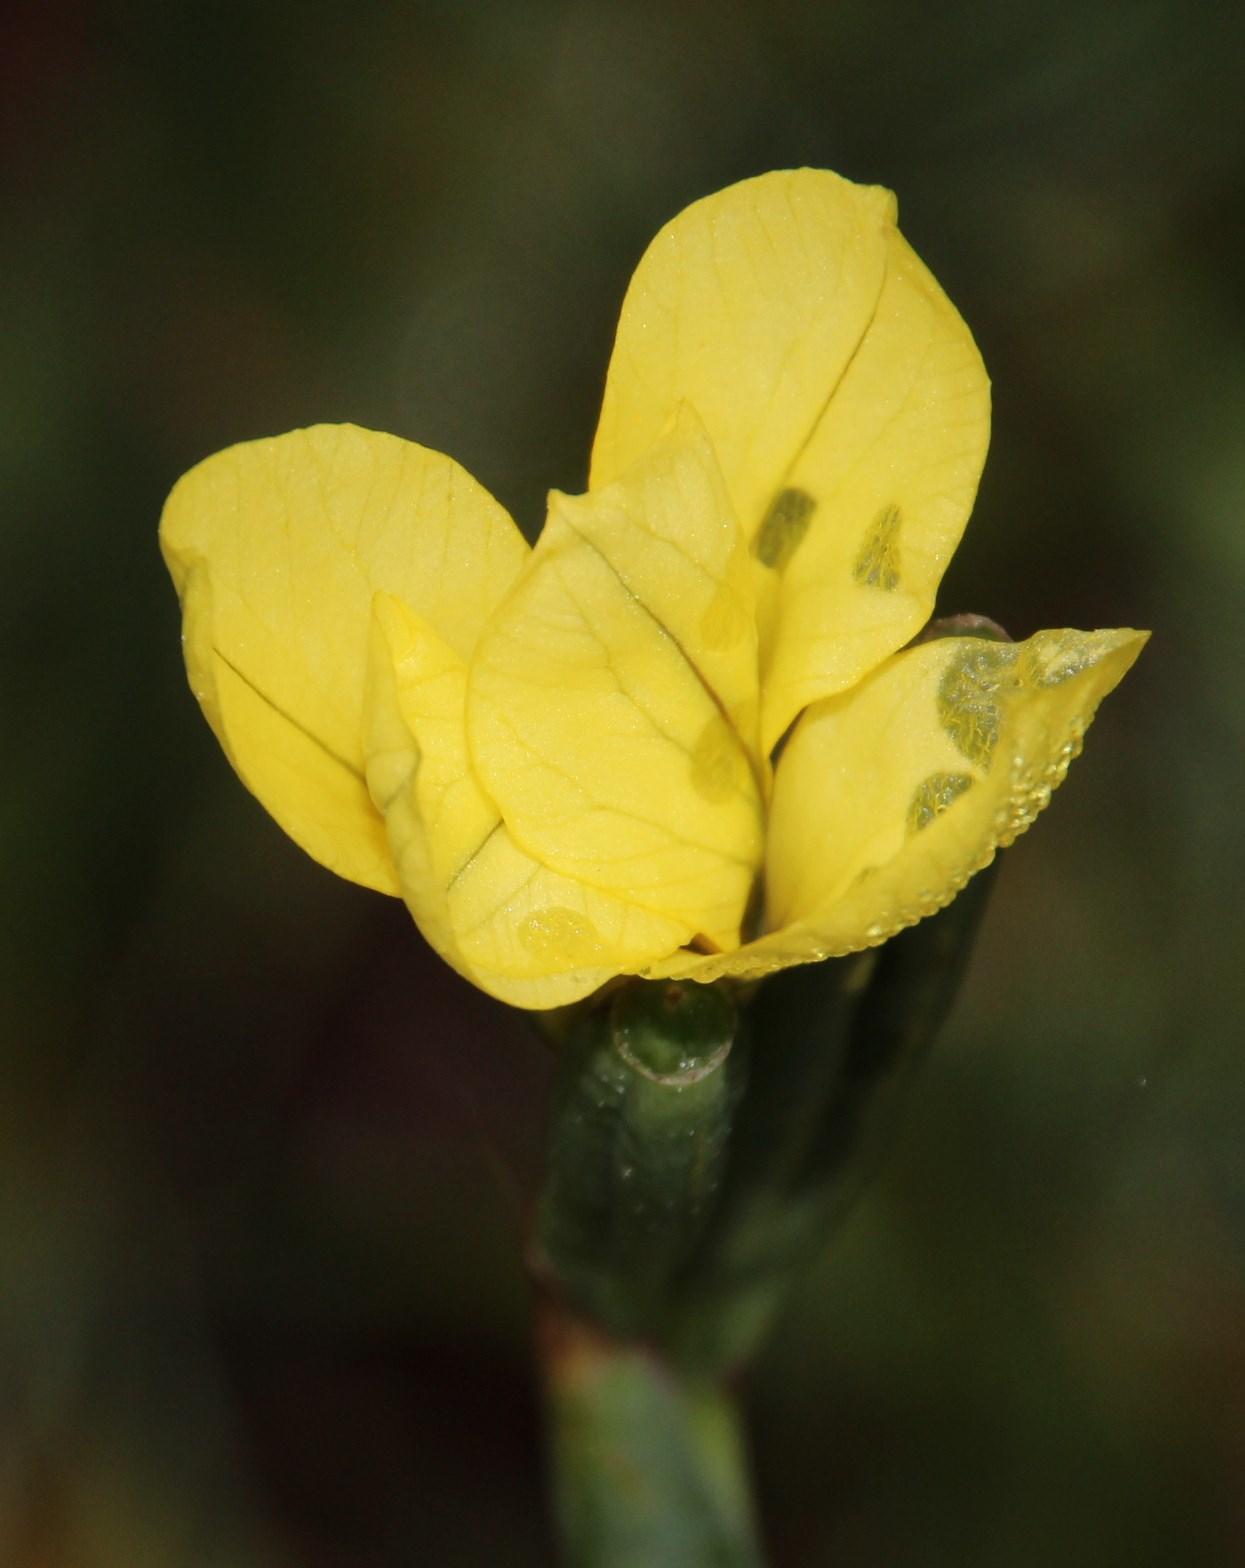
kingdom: Plantae
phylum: Tracheophyta
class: Liliopsida
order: Asparagales
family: Iridaceae
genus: Moraea
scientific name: Moraea collina
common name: Cape-tulip
